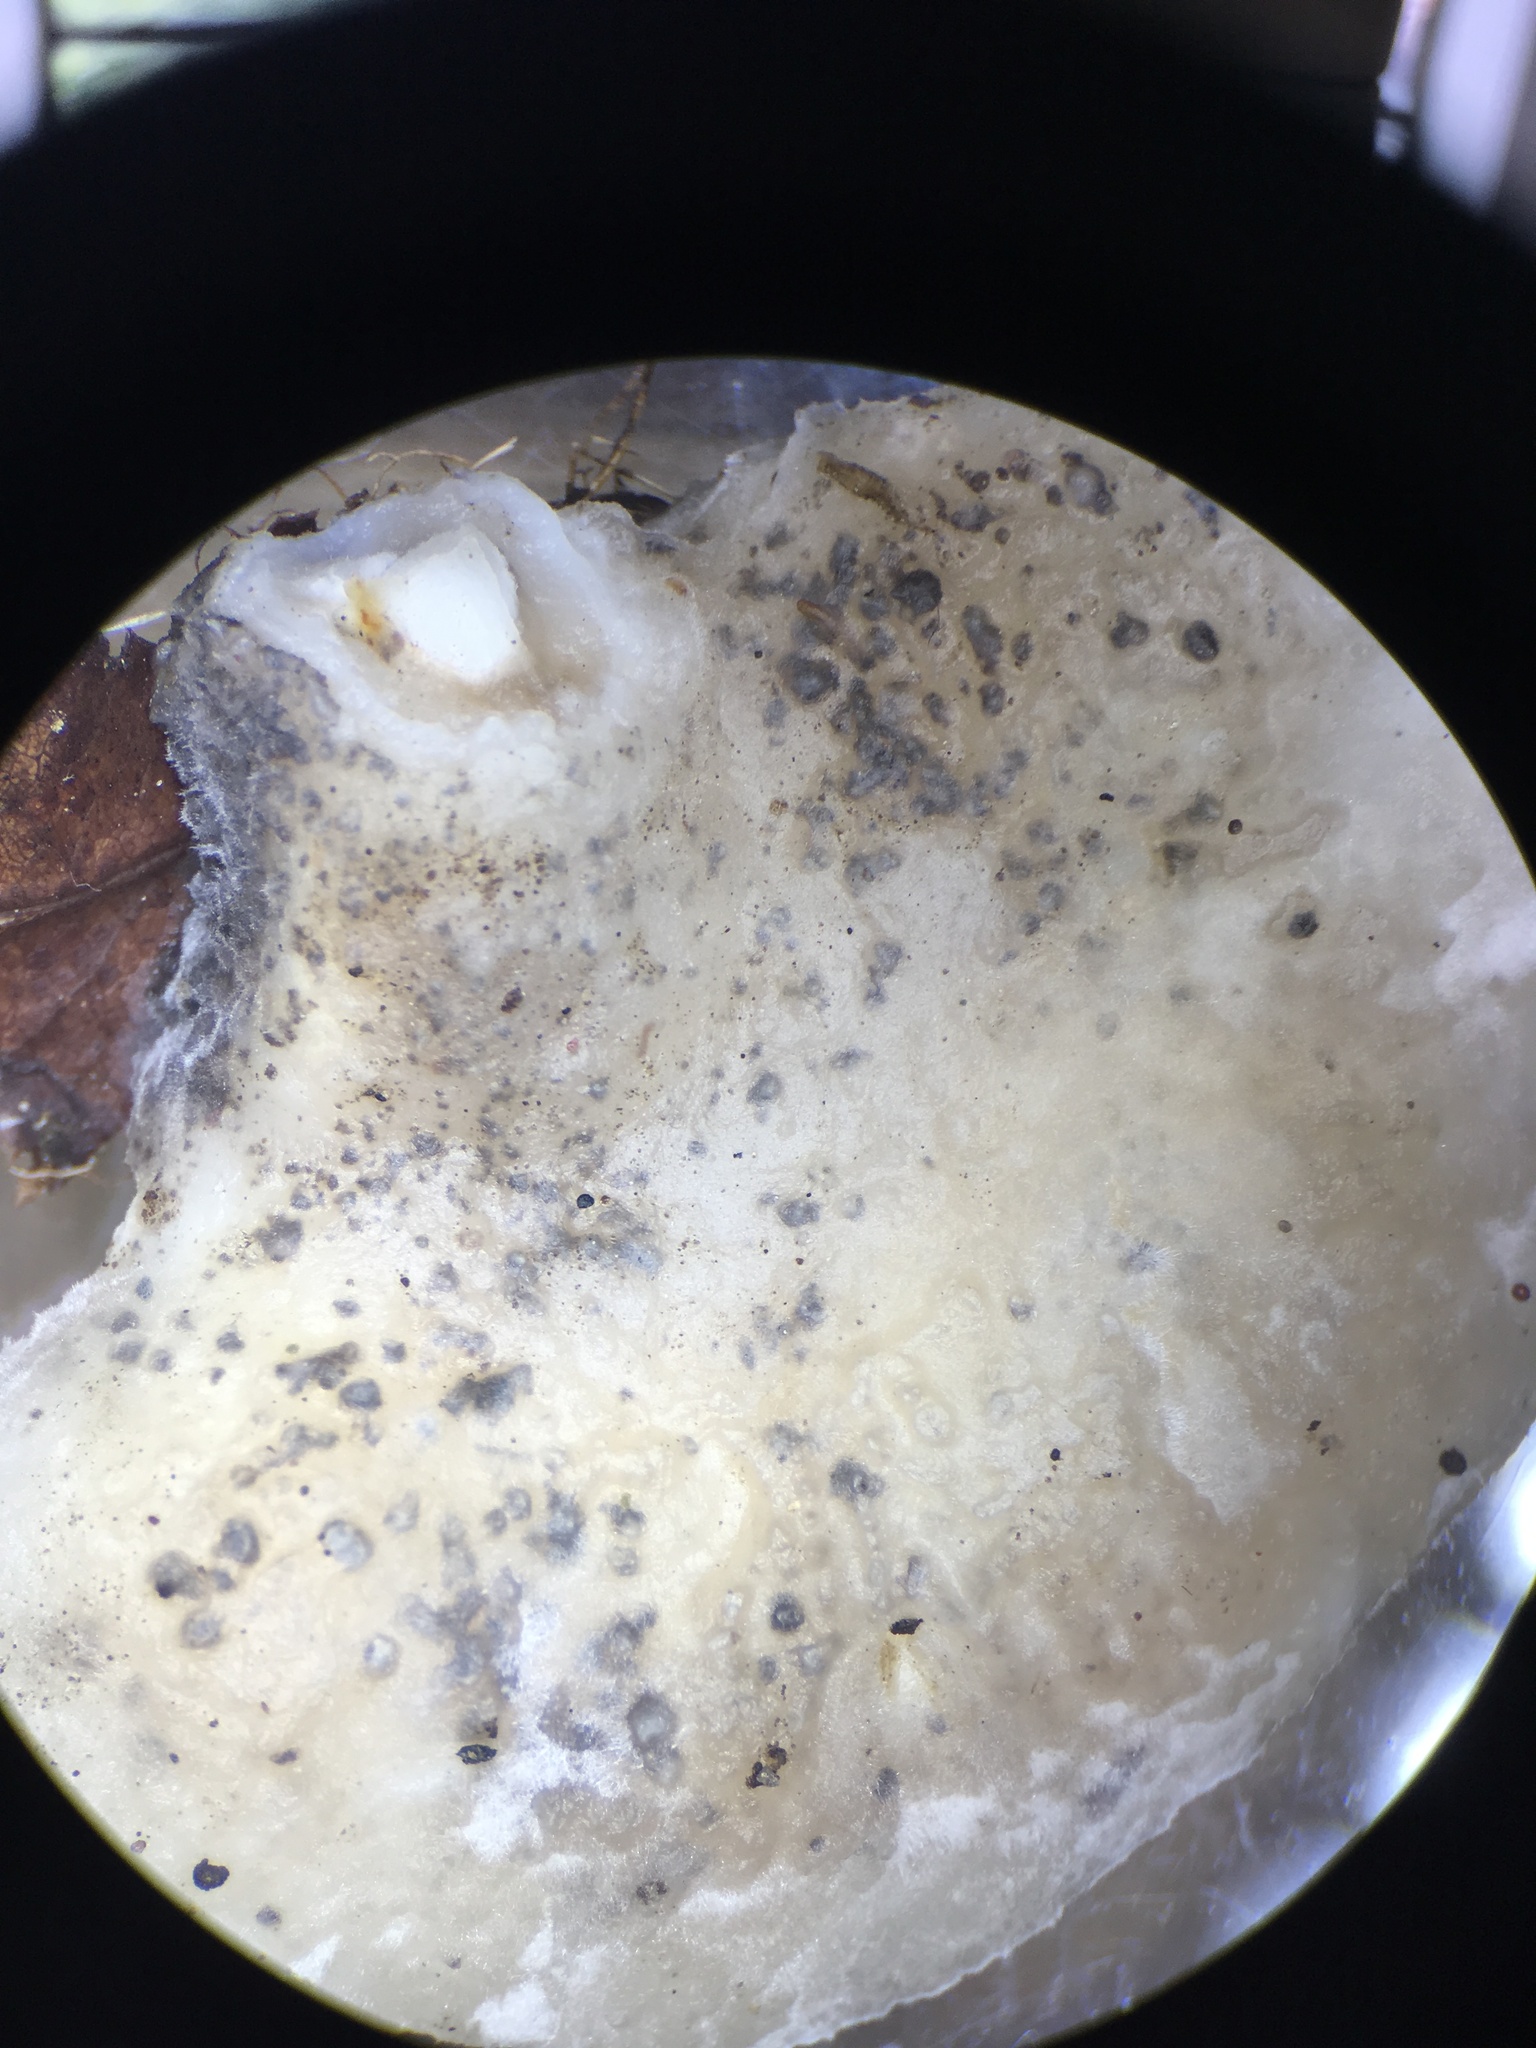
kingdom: Fungi
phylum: Basidiomycota
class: Agaricomycetes
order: Polyporales
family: Incrustoporiaceae
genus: Tyromyces
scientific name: Tyromyces fumidiceps
